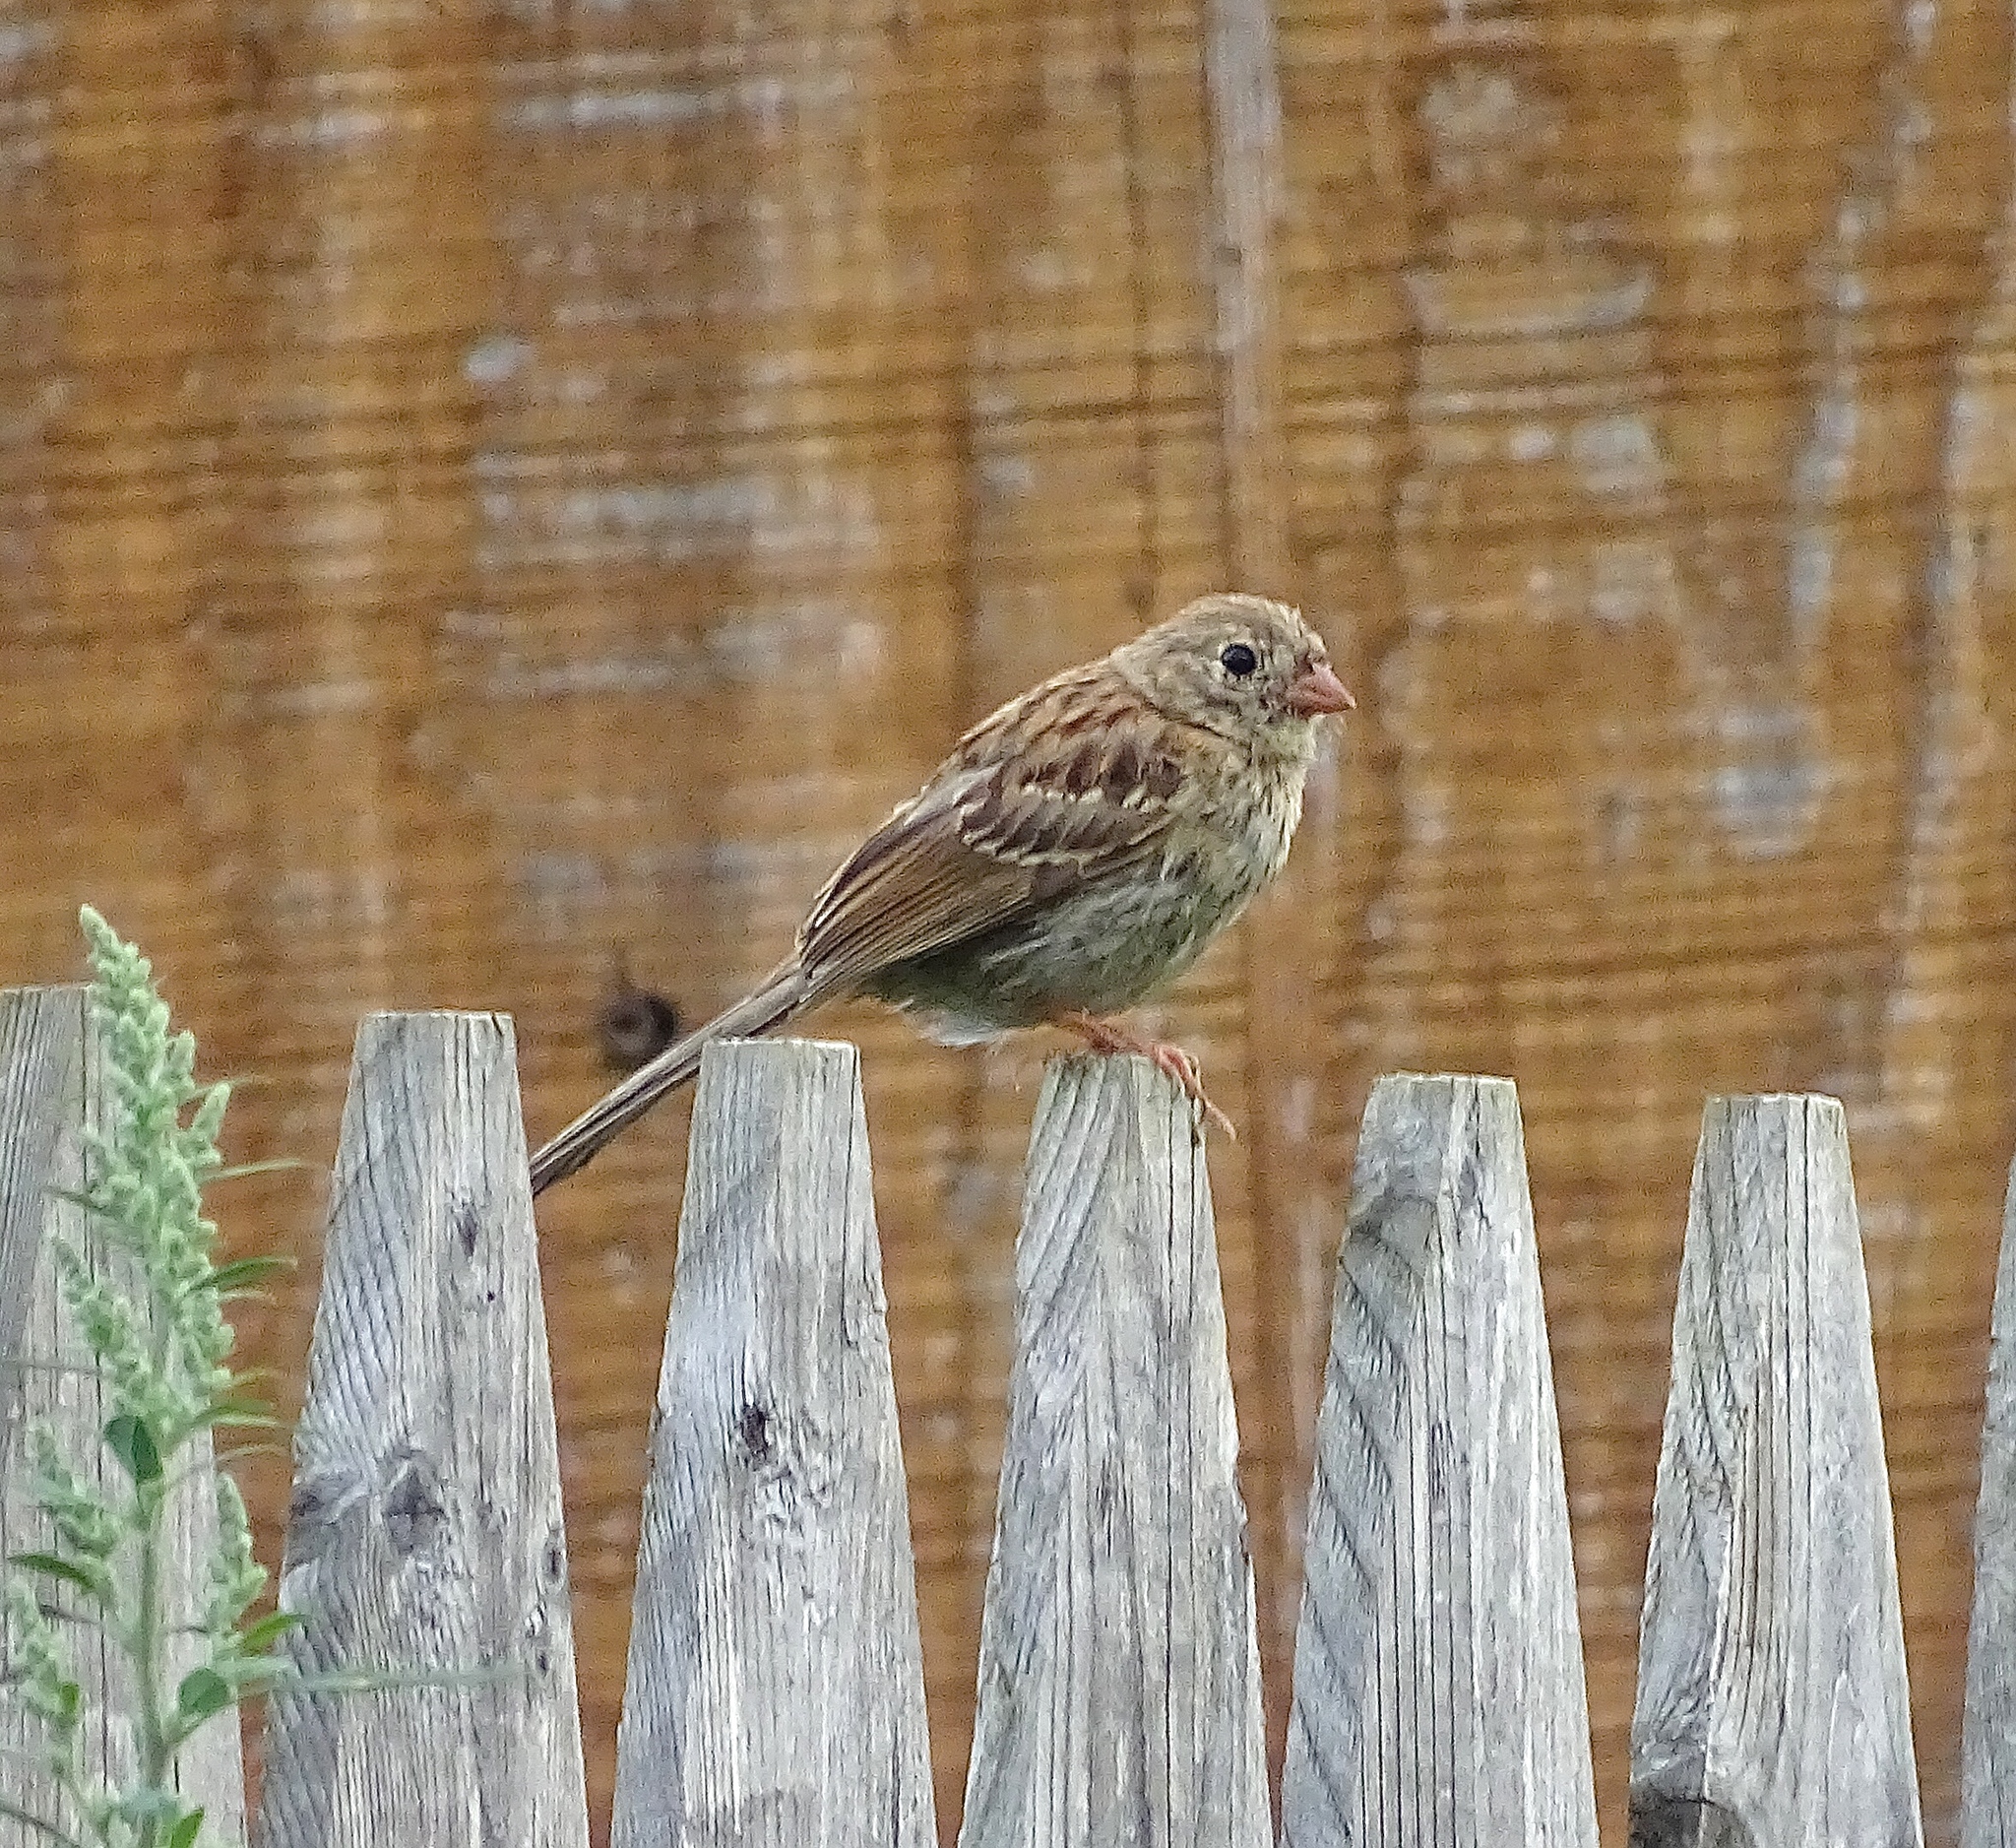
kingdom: Animalia
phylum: Chordata
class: Aves
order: Passeriformes
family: Passerellidae
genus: Spizella
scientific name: Spizella pusilla
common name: Field sparrow
